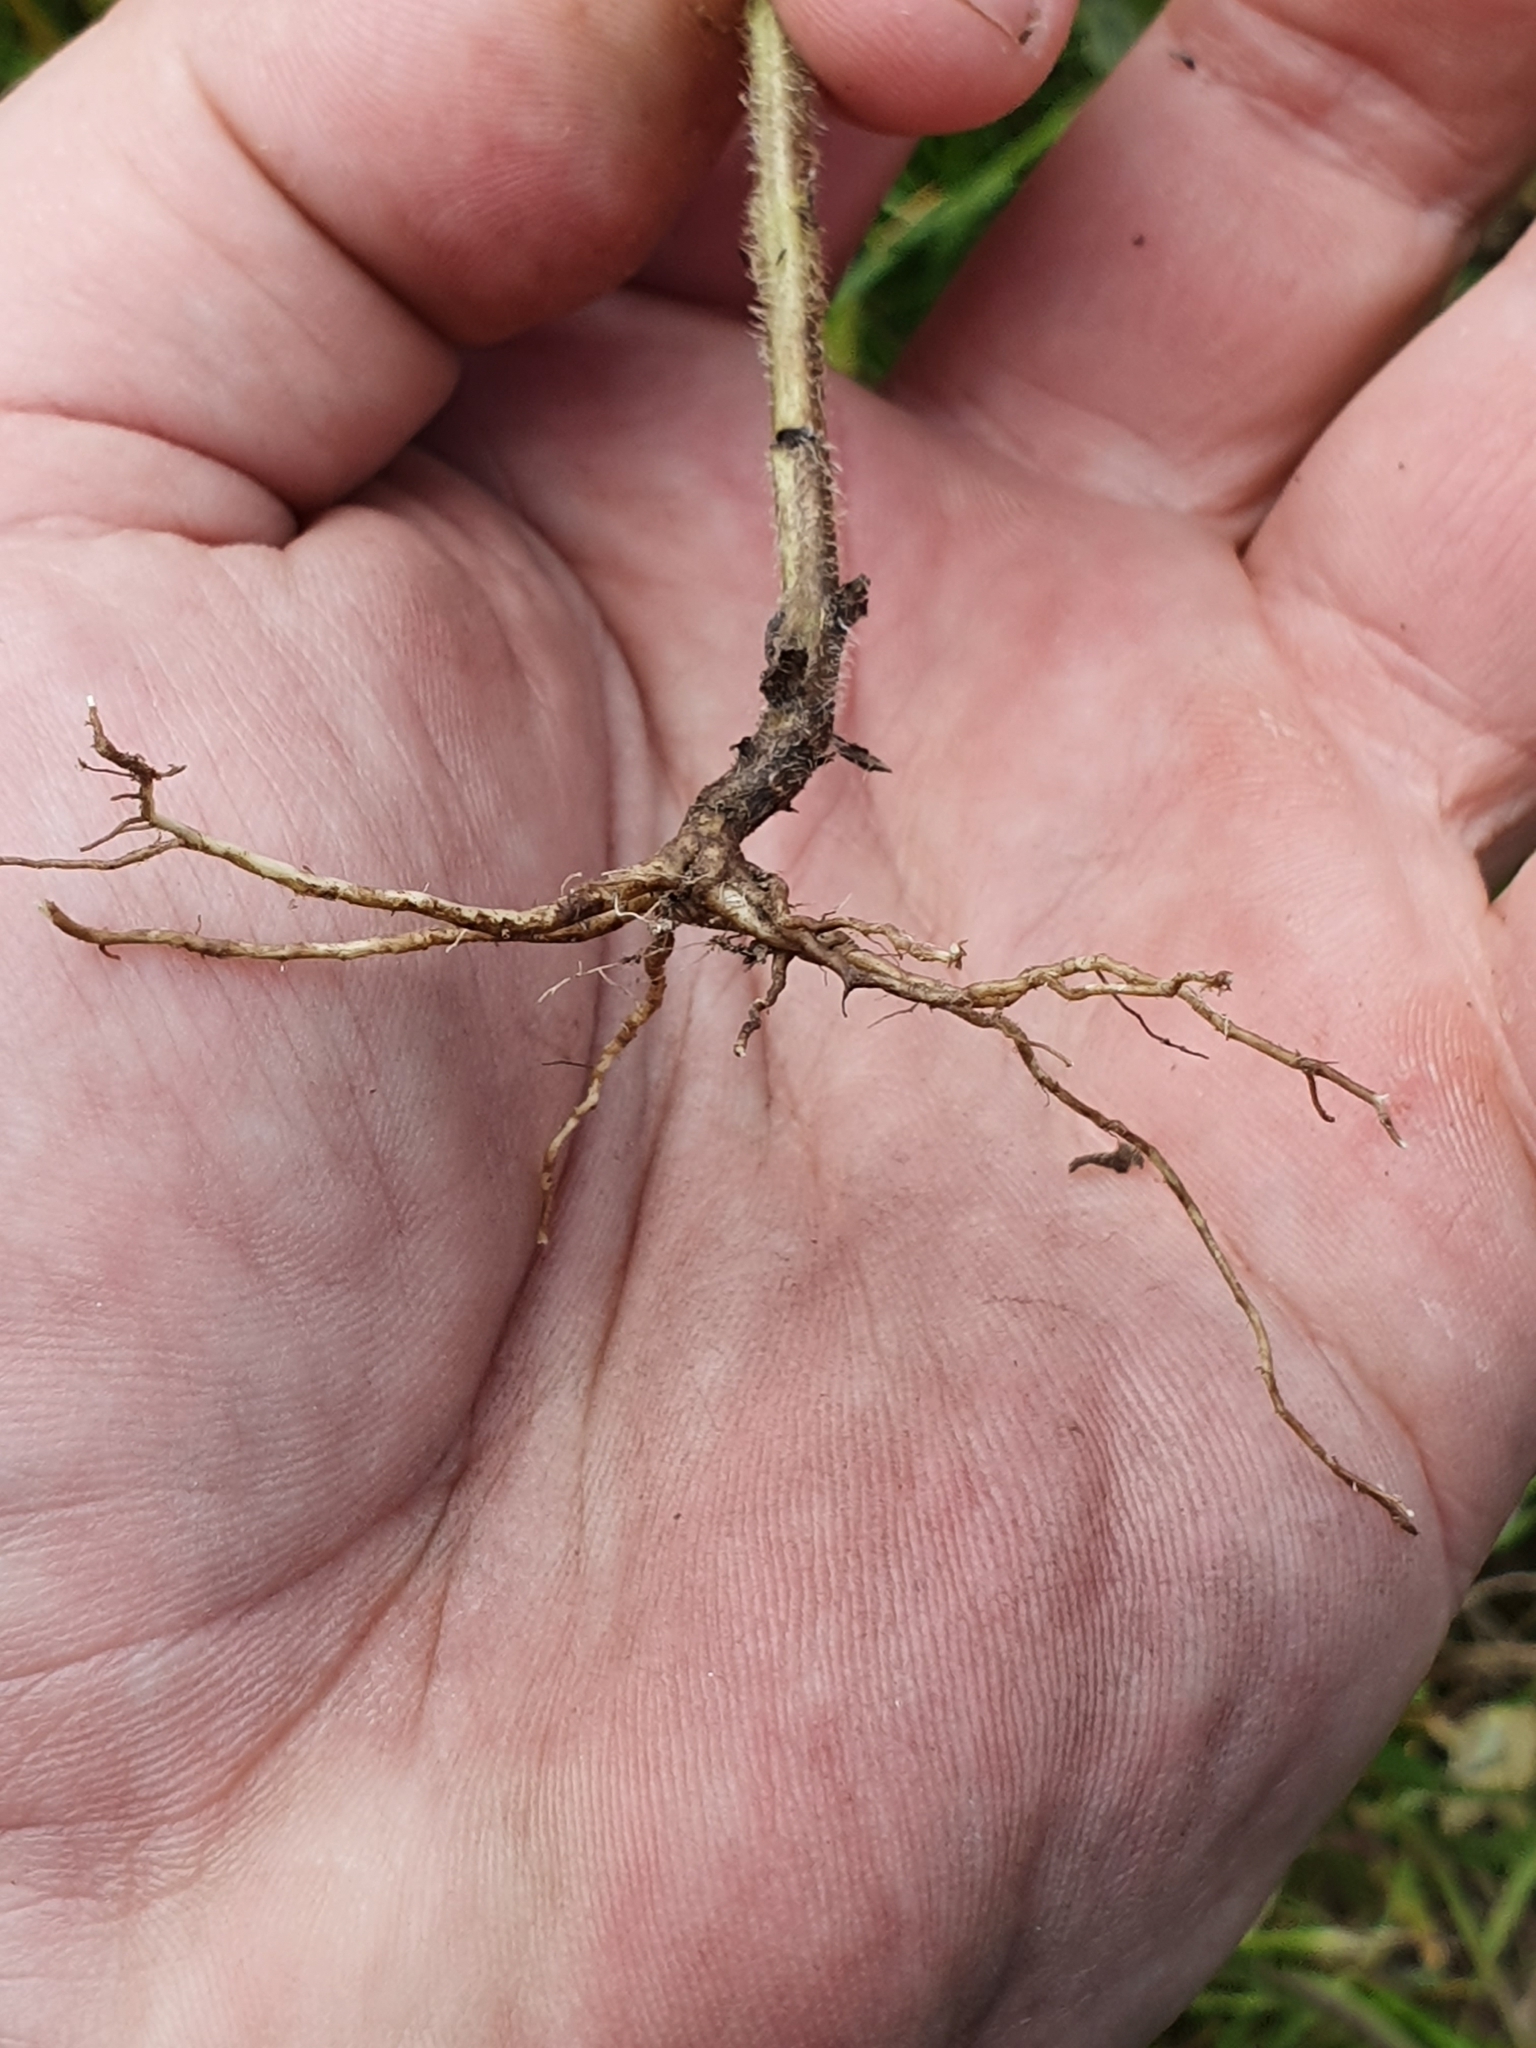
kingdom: Plantae
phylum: Tracheophyta
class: Magnoliopsida
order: Lamiales
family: Orobanchaceae
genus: Bellardia
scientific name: Bellardia viscosa
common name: Sticky parentucellia
